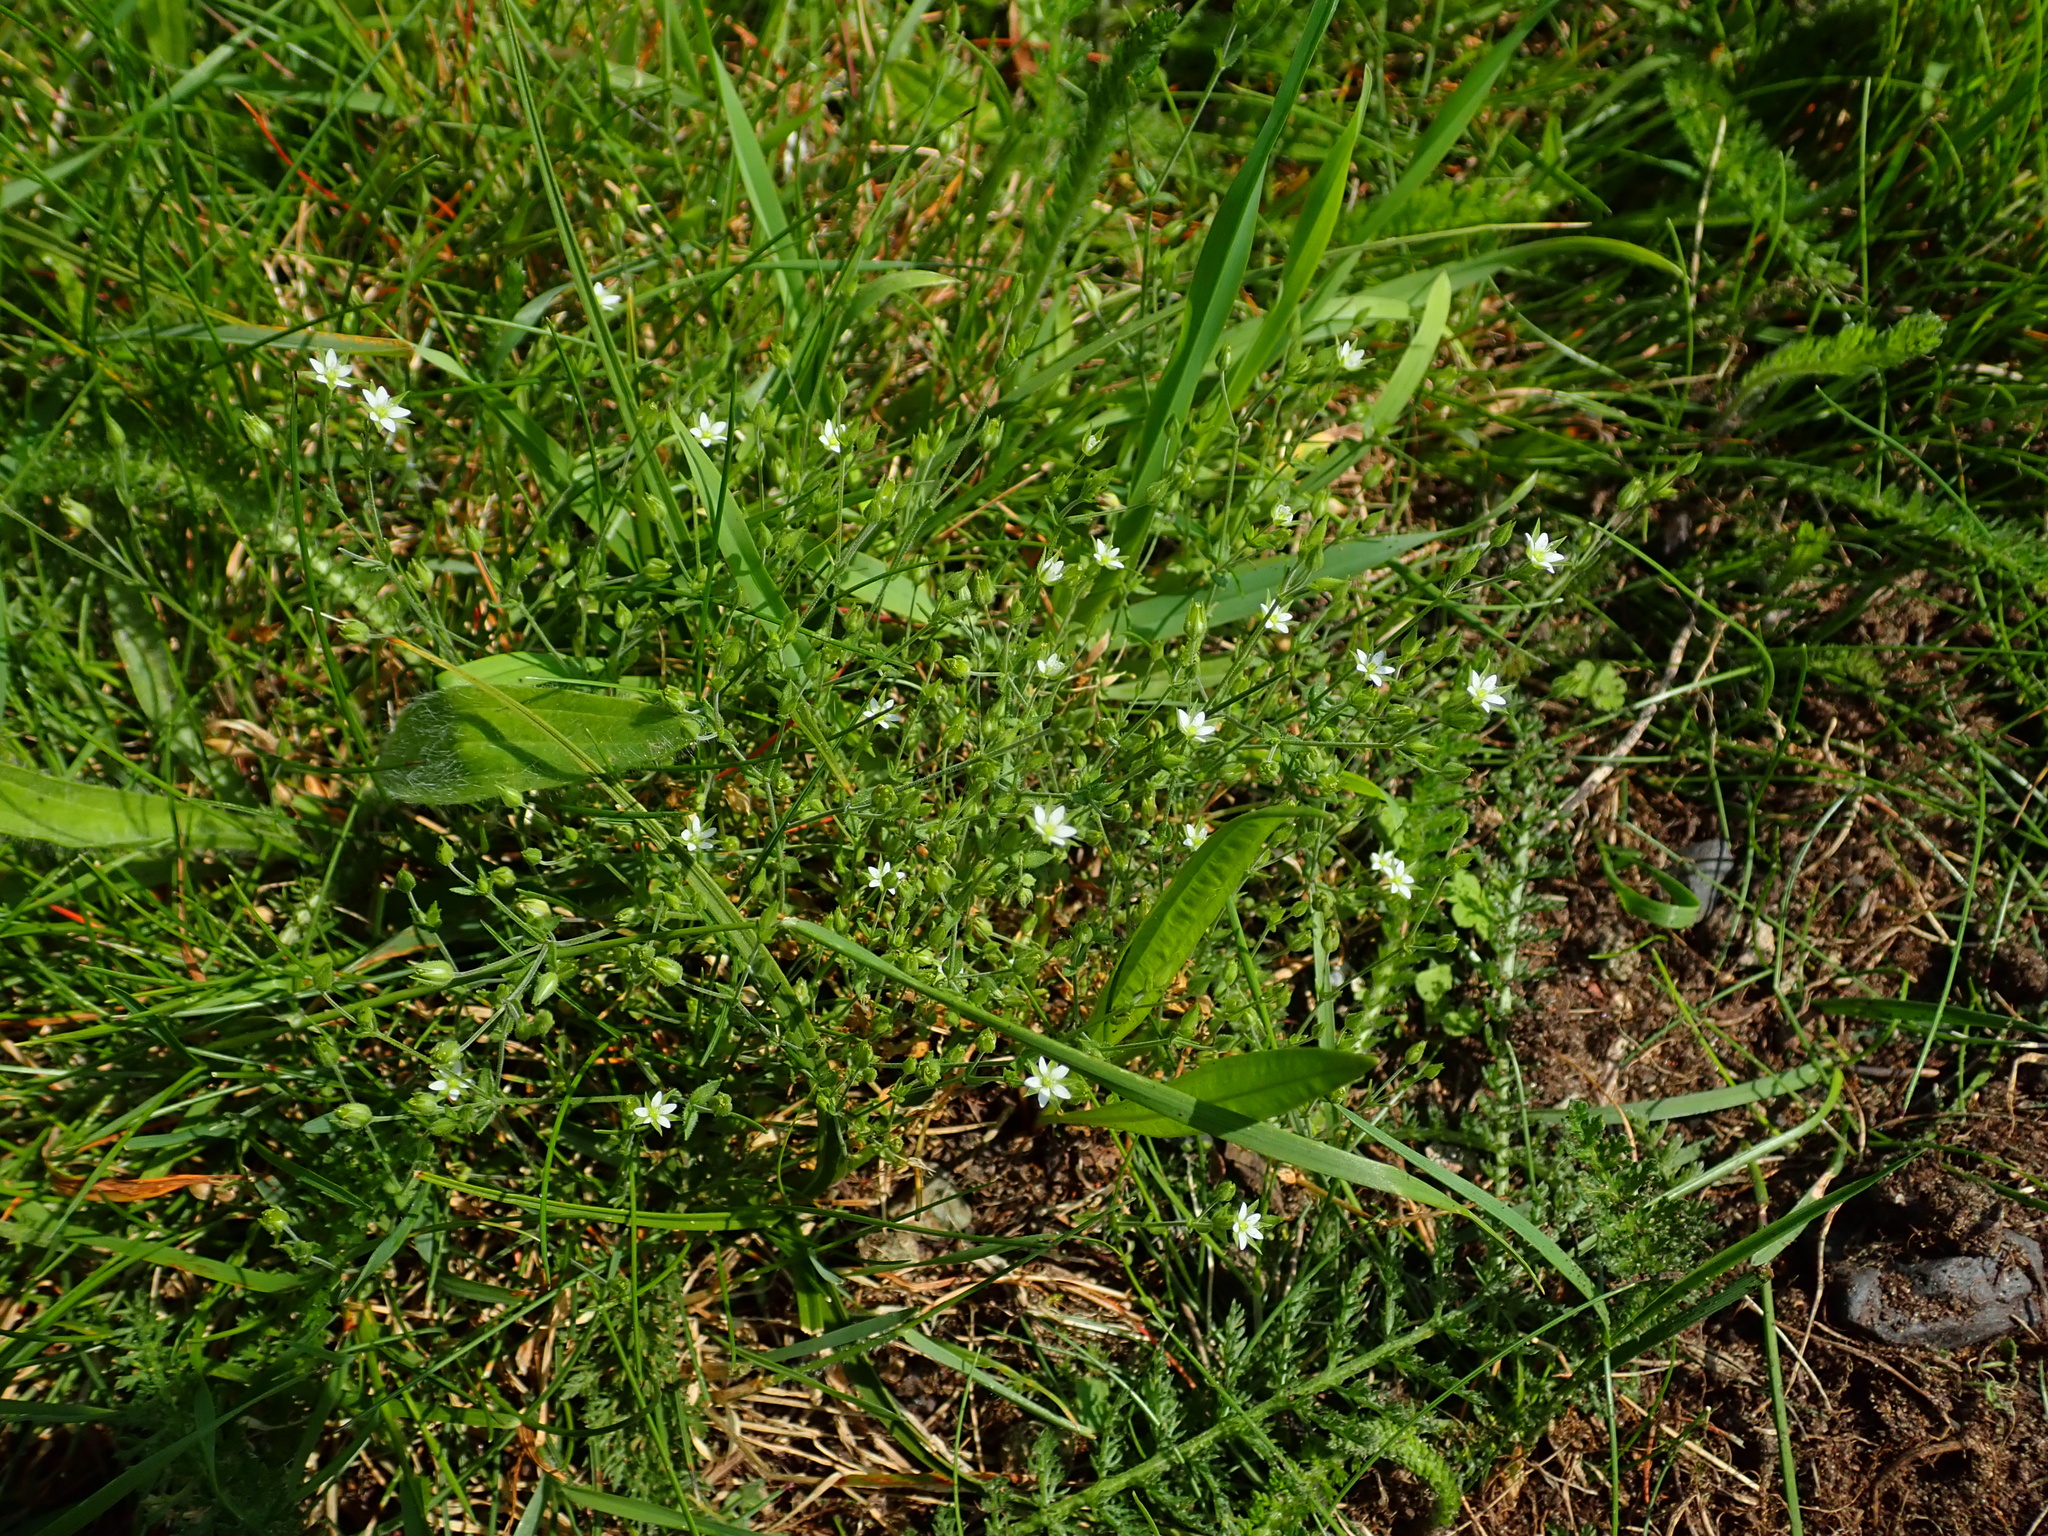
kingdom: Plantae
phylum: Tracheophyta
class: Magnoliopsida
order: Caryophyllales
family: Caryophyllaceae
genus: Arenaria
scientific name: Arenaria serpyllifolia
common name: Thyme-leaved sandwort
